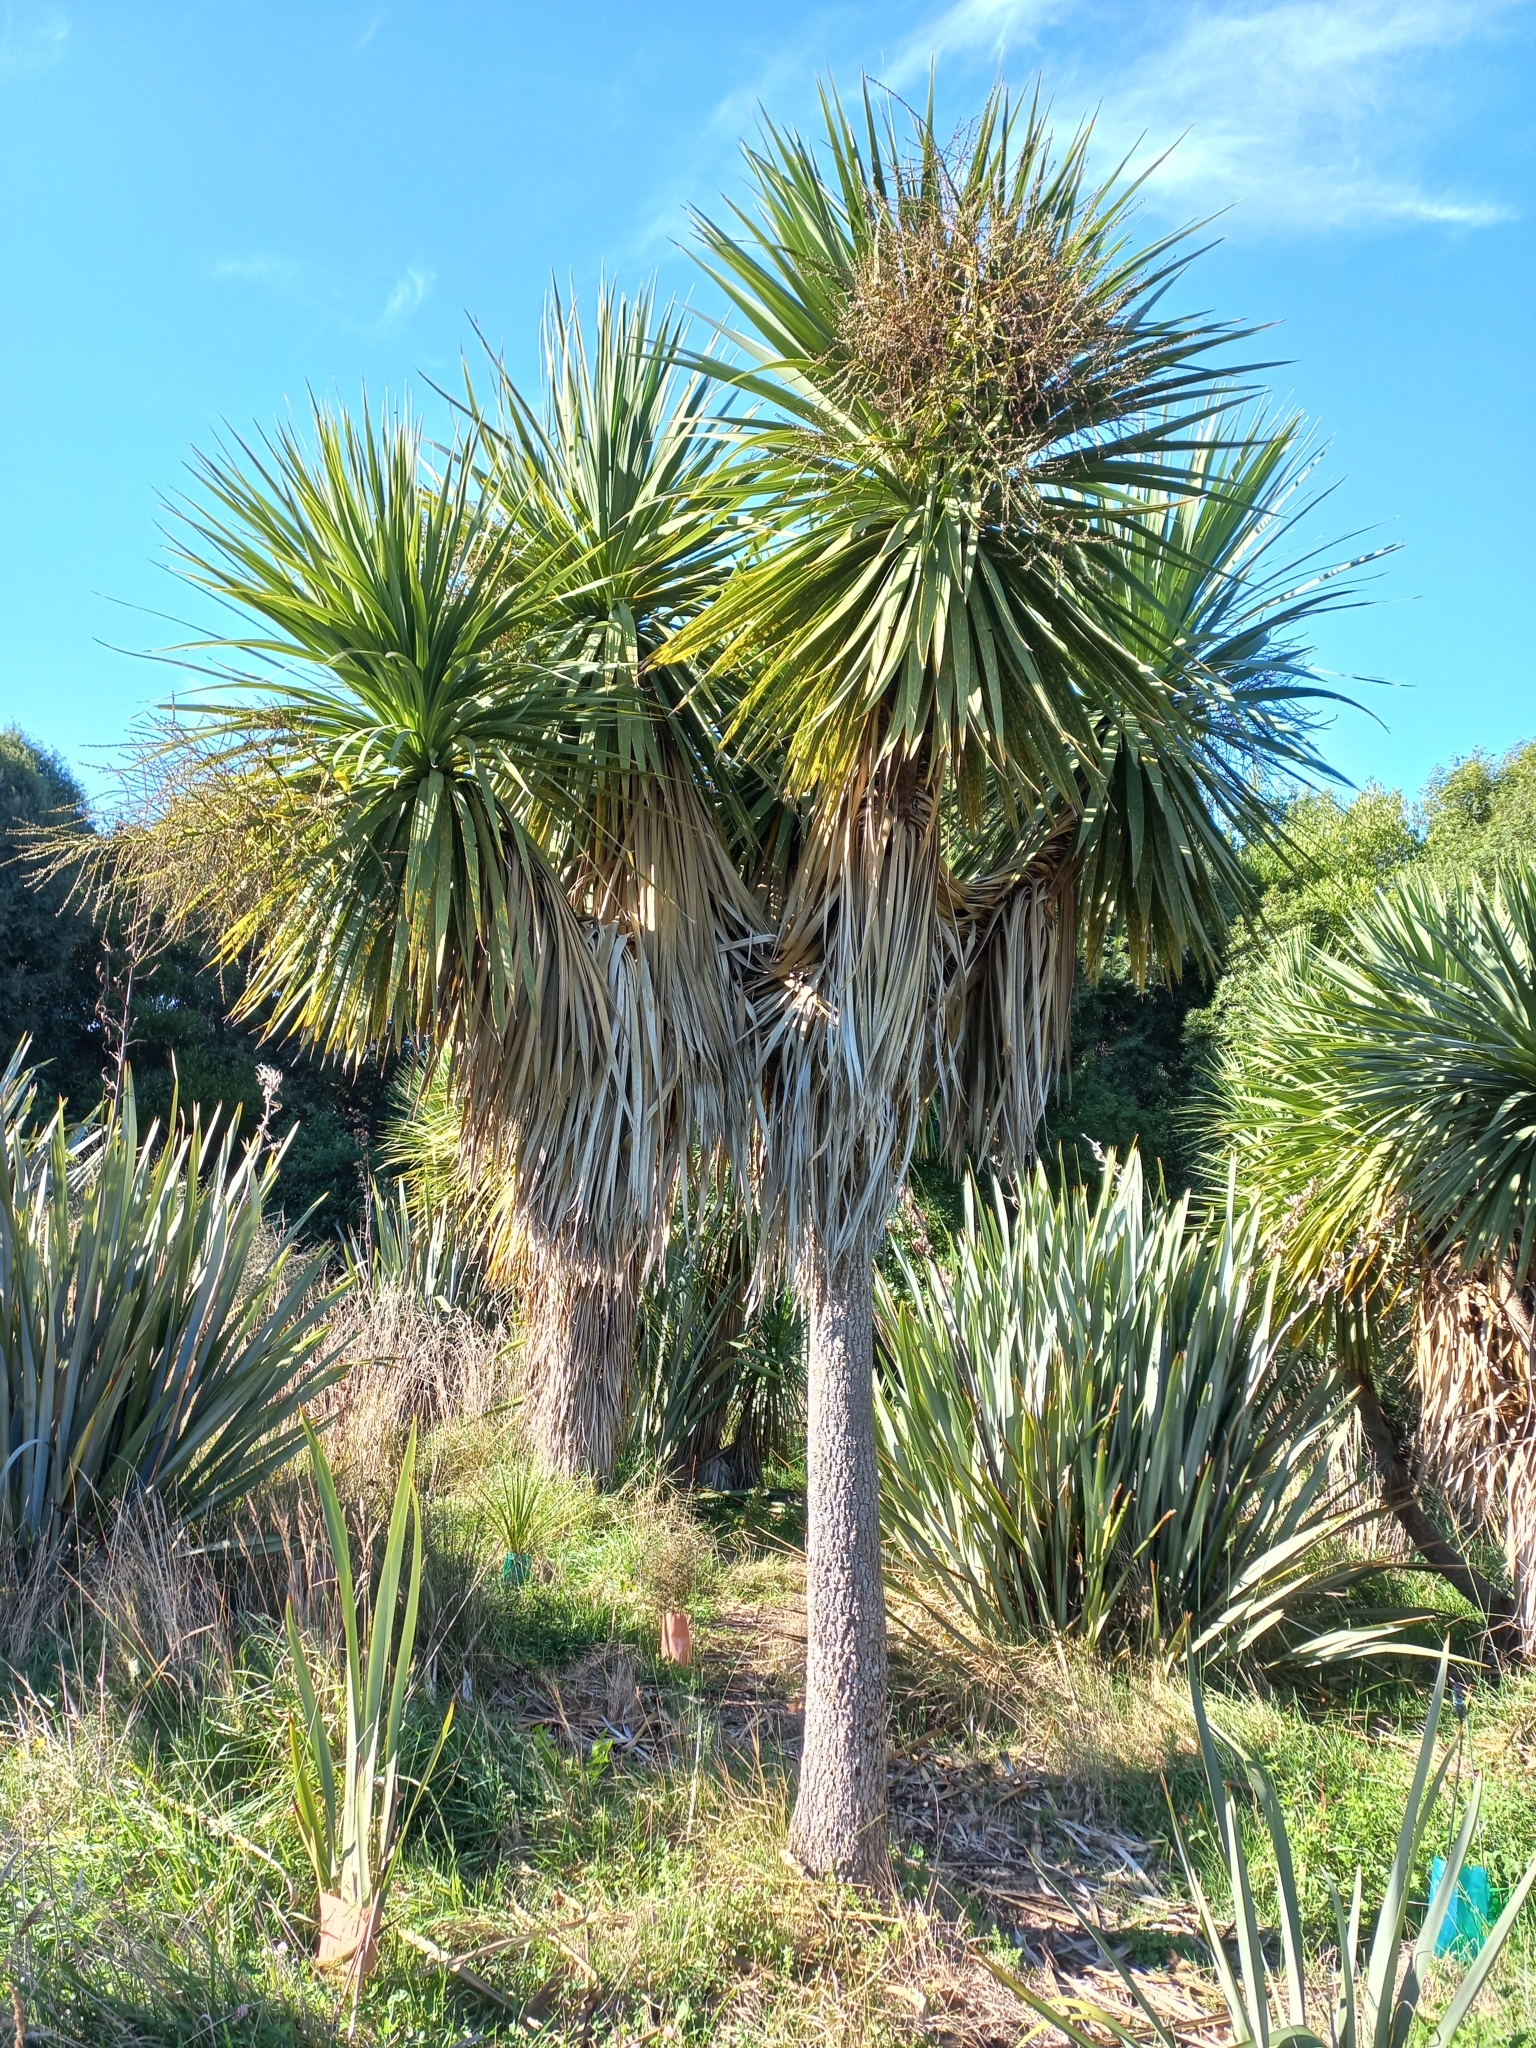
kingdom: Plantae
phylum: Tracheophyta
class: Liliopsida
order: Asparagales
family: Asparagaceae
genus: Cordyline
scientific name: Cordyline australis
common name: Cabbage-palm
